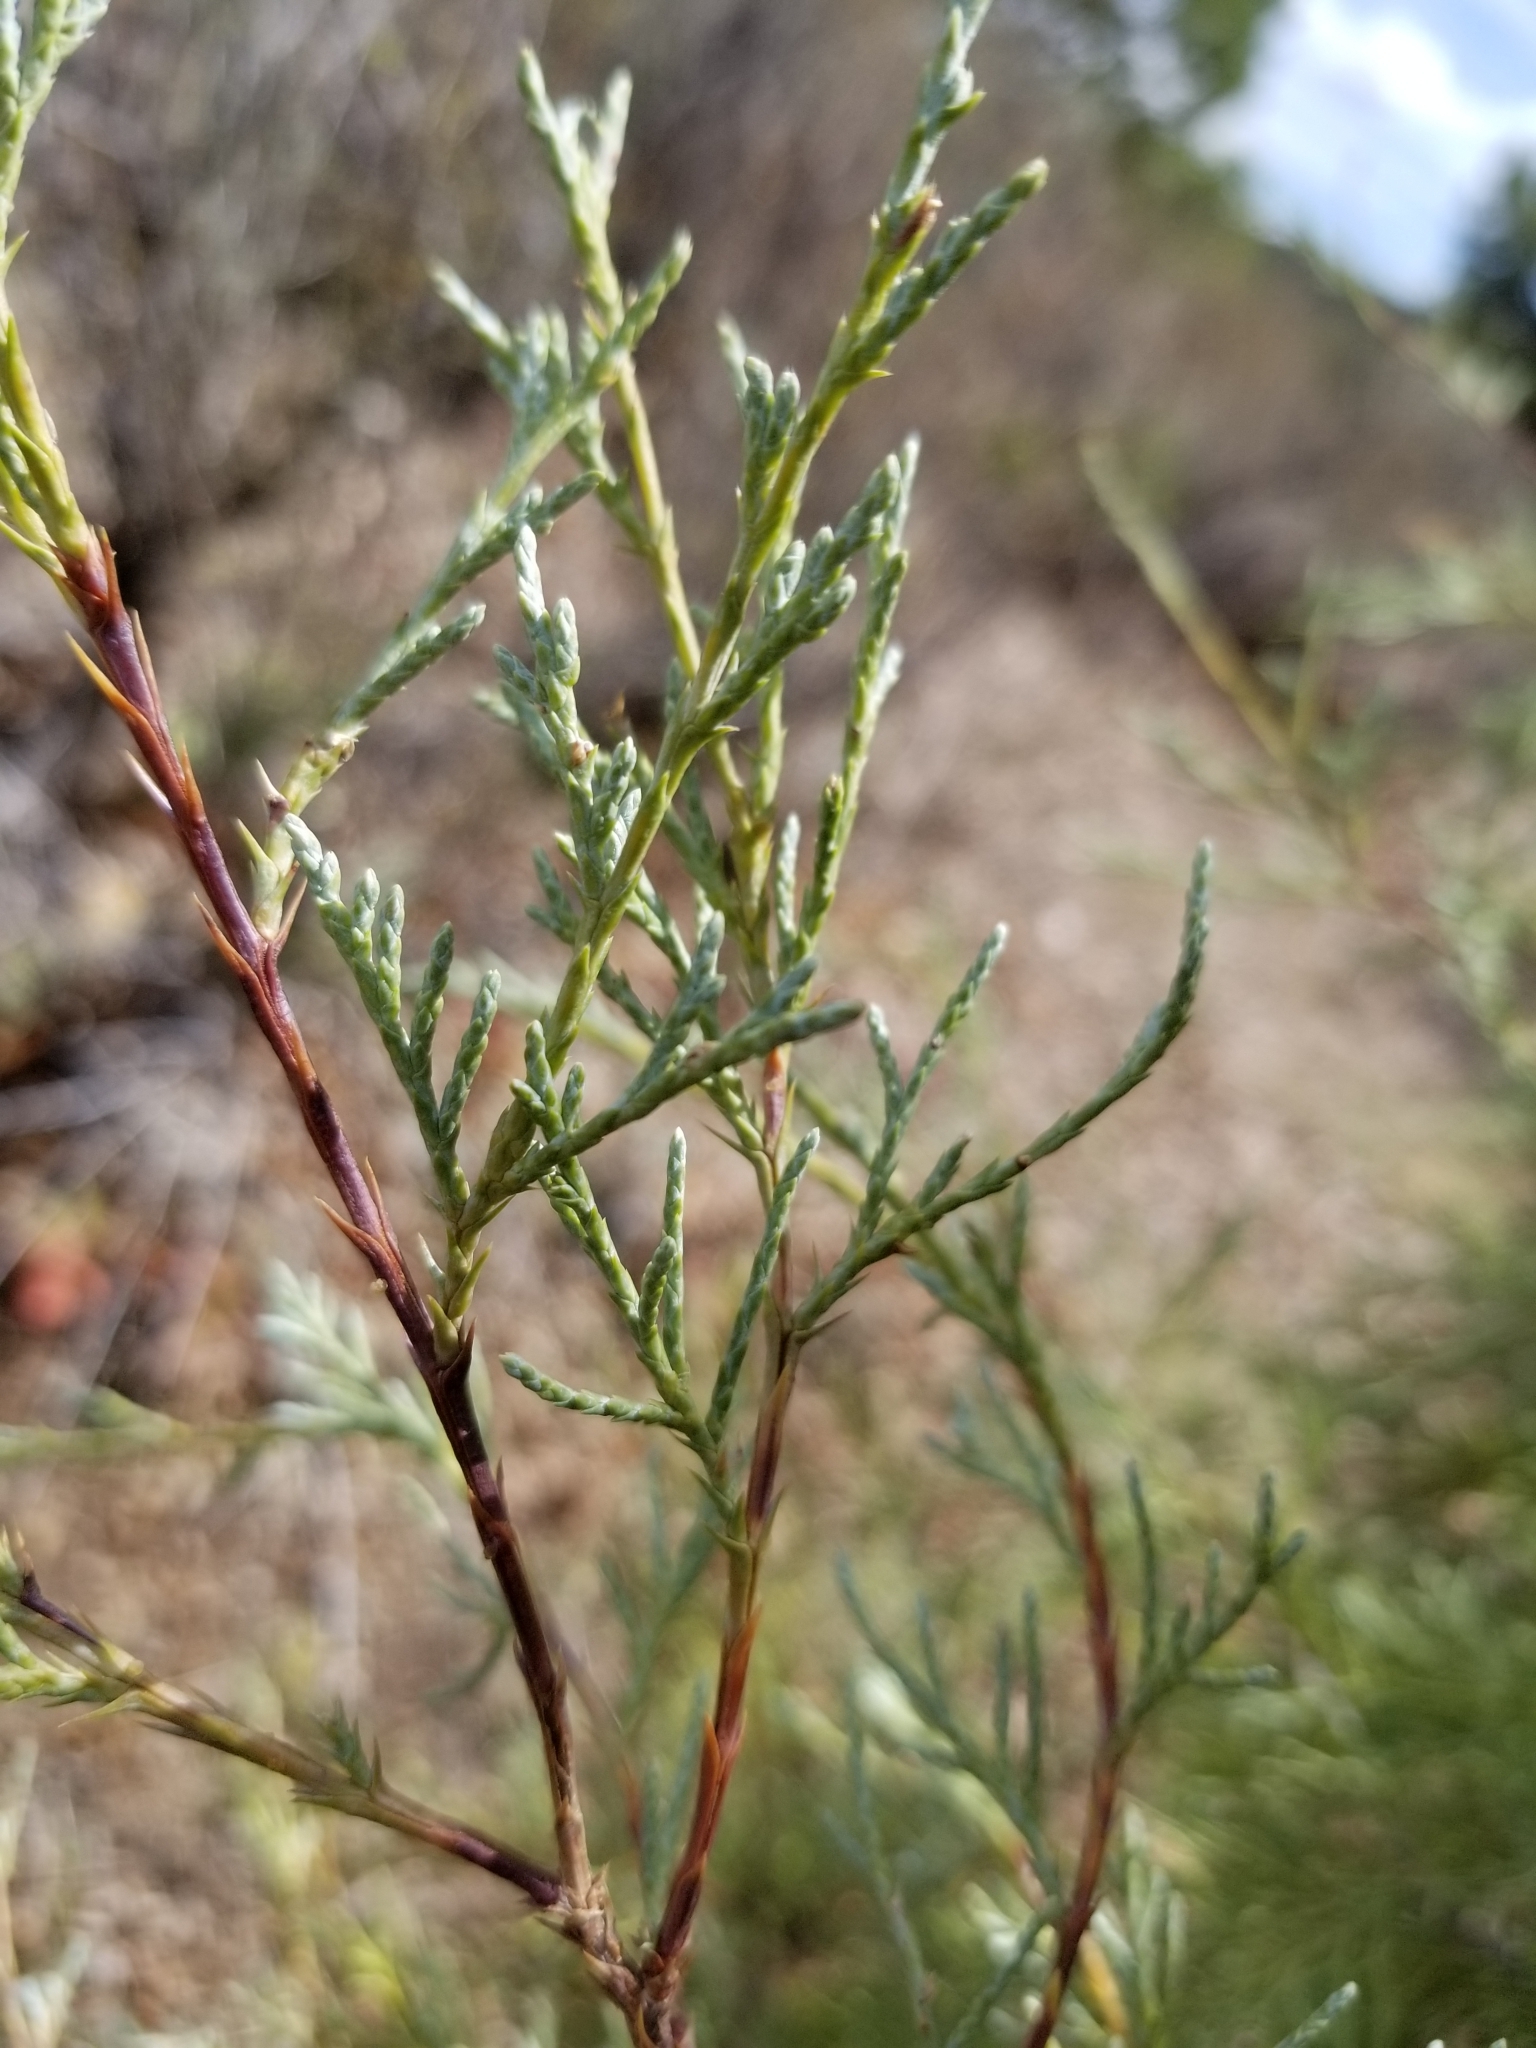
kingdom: Plantae
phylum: Tracheophyta
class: Pinopsida
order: Pinales
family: Cupressaceae
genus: Juniperus
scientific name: Juniperus scopulorum
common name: Rocky mountain juniper
